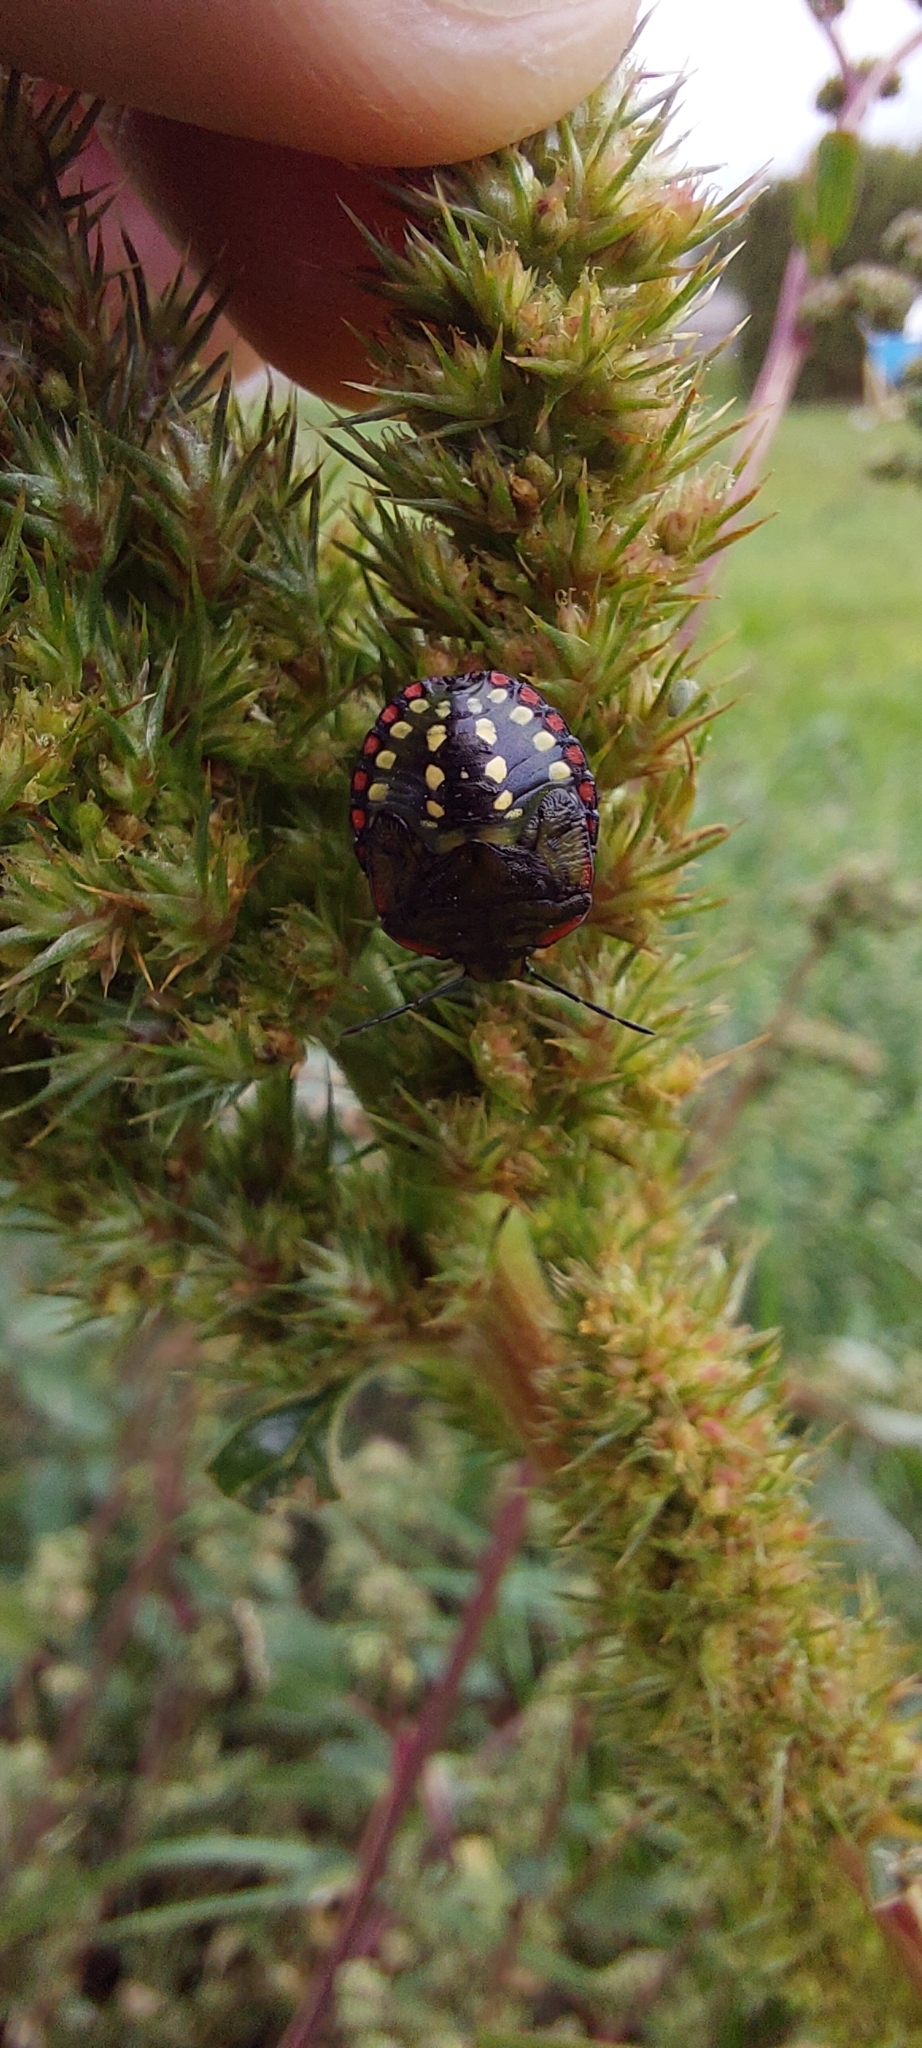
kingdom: Animalia
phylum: Arthropoda
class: Insecta
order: Hemiptera
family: Pentatomidae
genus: Nezara
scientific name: Nezara viridula
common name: Southern green stink bug
